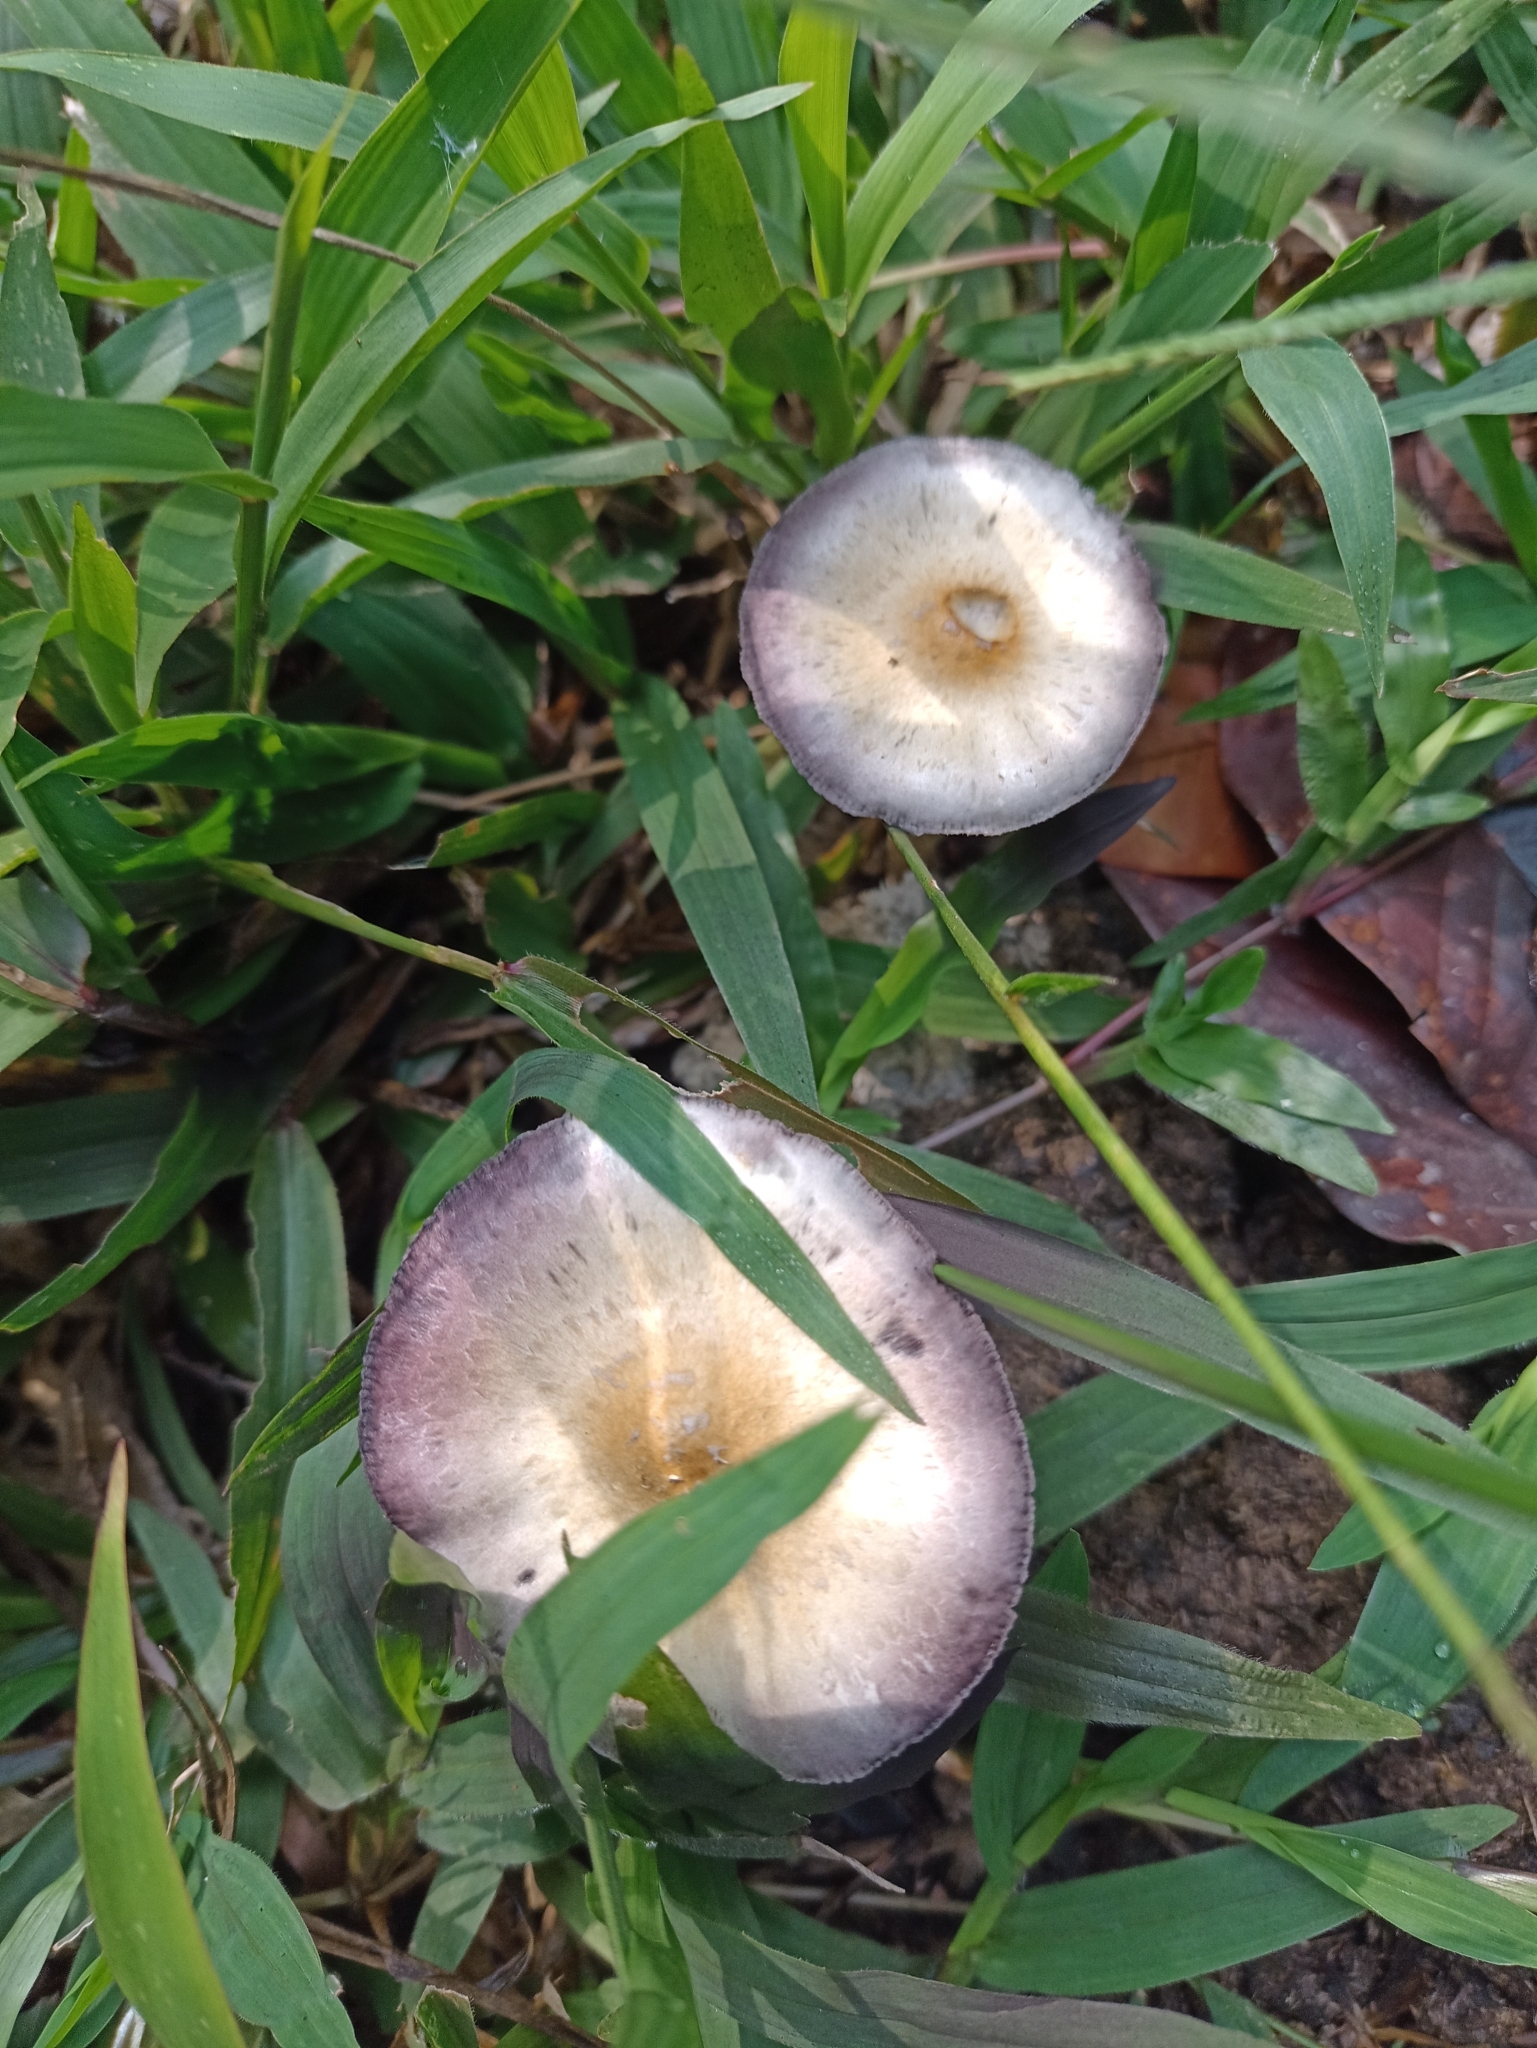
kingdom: Fungi
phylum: Basidiomycota
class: Agaricomycetes
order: Agaricales
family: Hymenogastraceae
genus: Psilocybe
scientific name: Psilocybe cubensis
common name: Golden brownie
